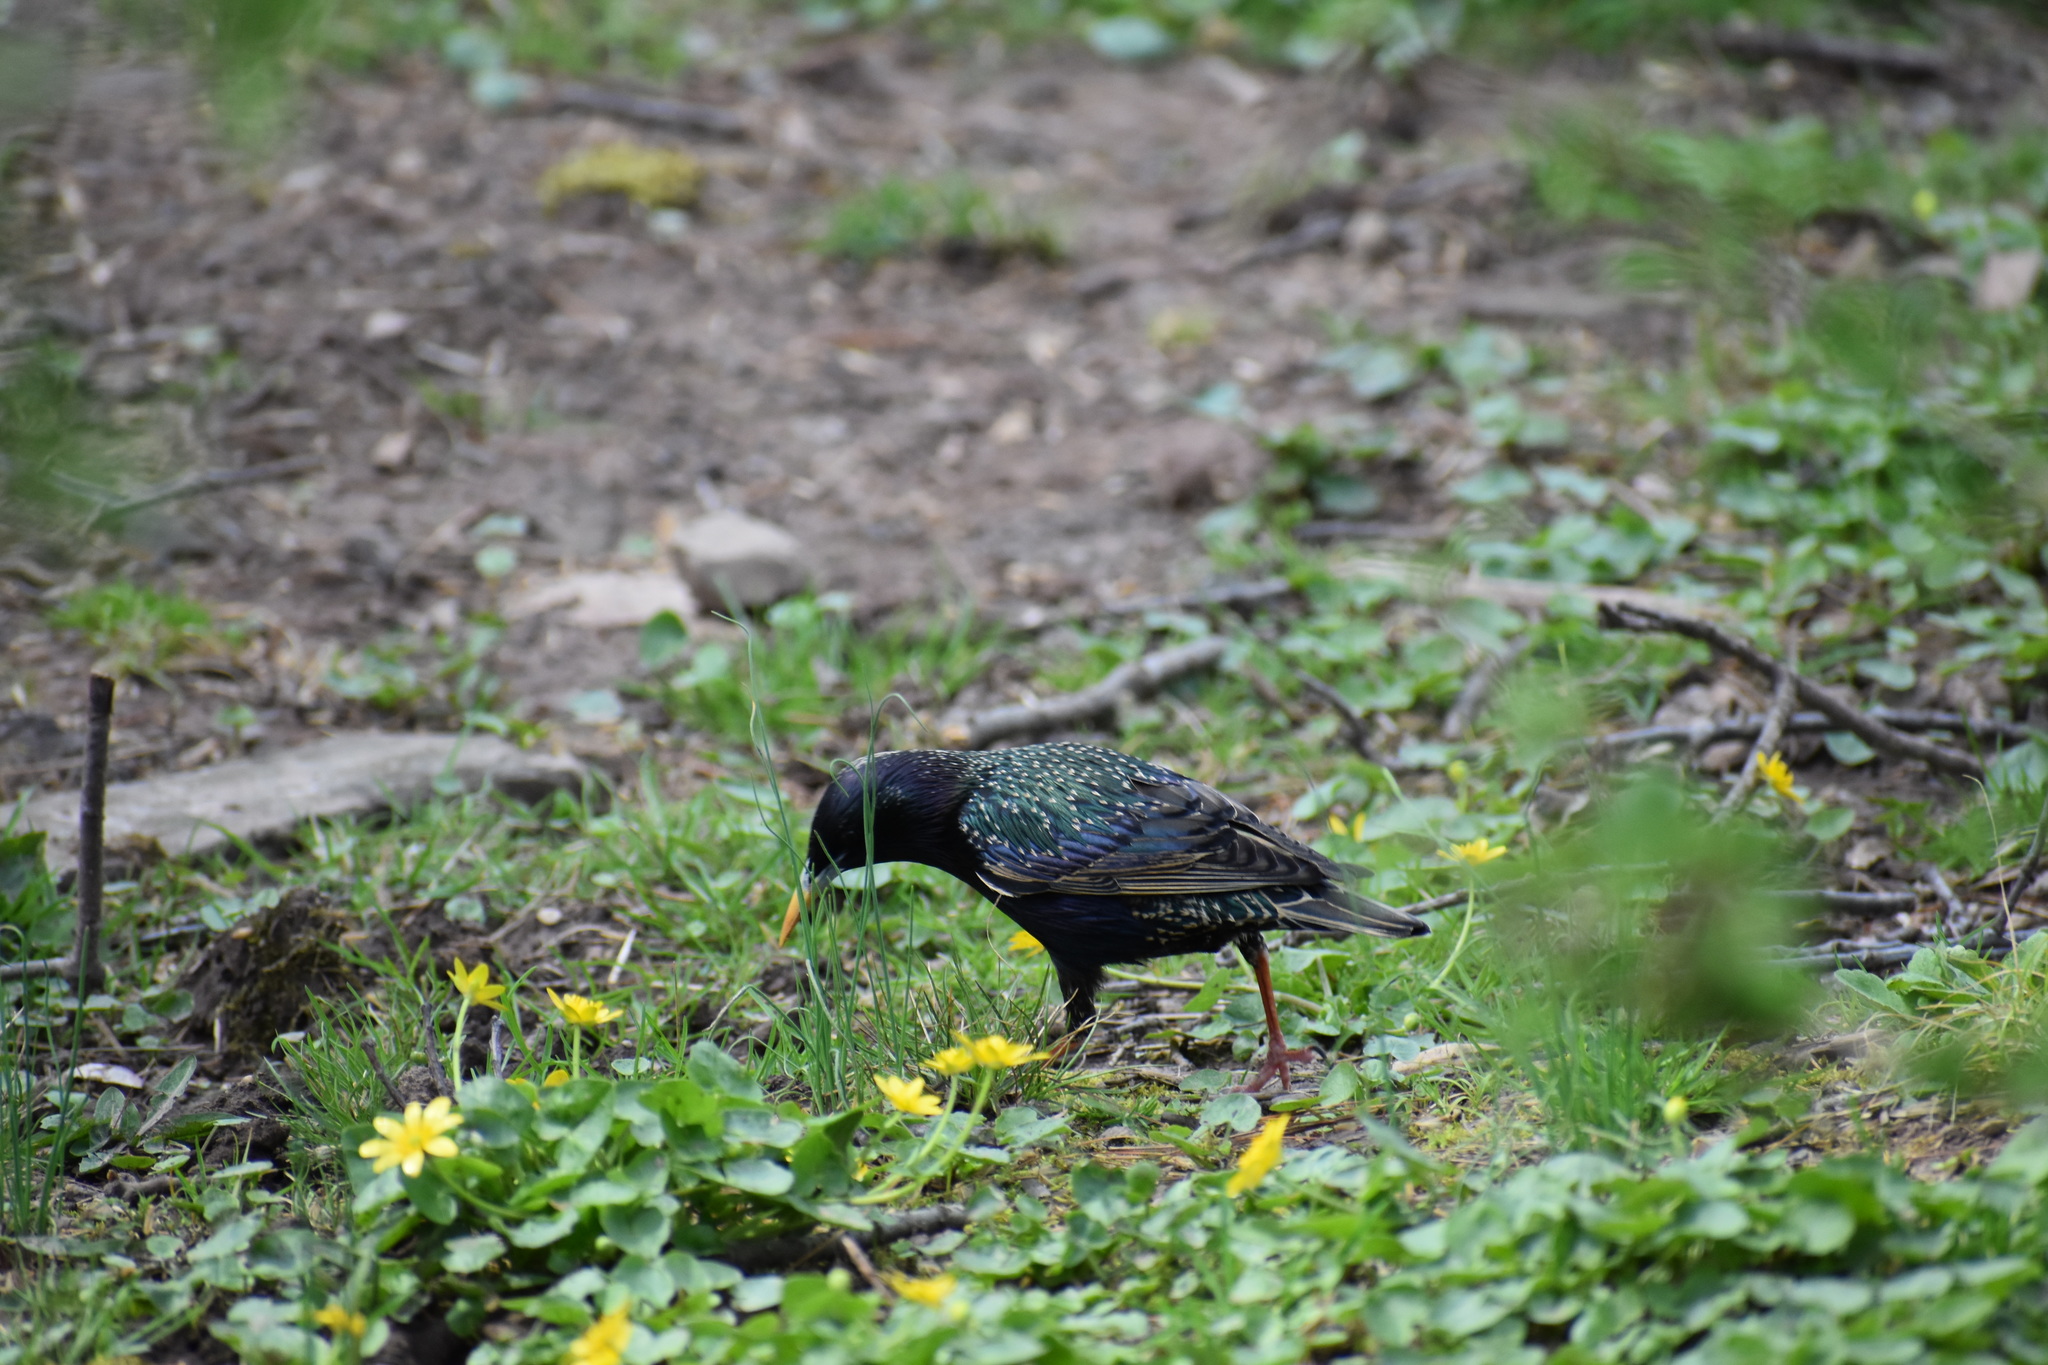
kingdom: Animalia
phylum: Chordata
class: Aves
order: Passeriformes
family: Sturnidae
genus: Sturnus
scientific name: Sturnus vulgaris
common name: Common starling
